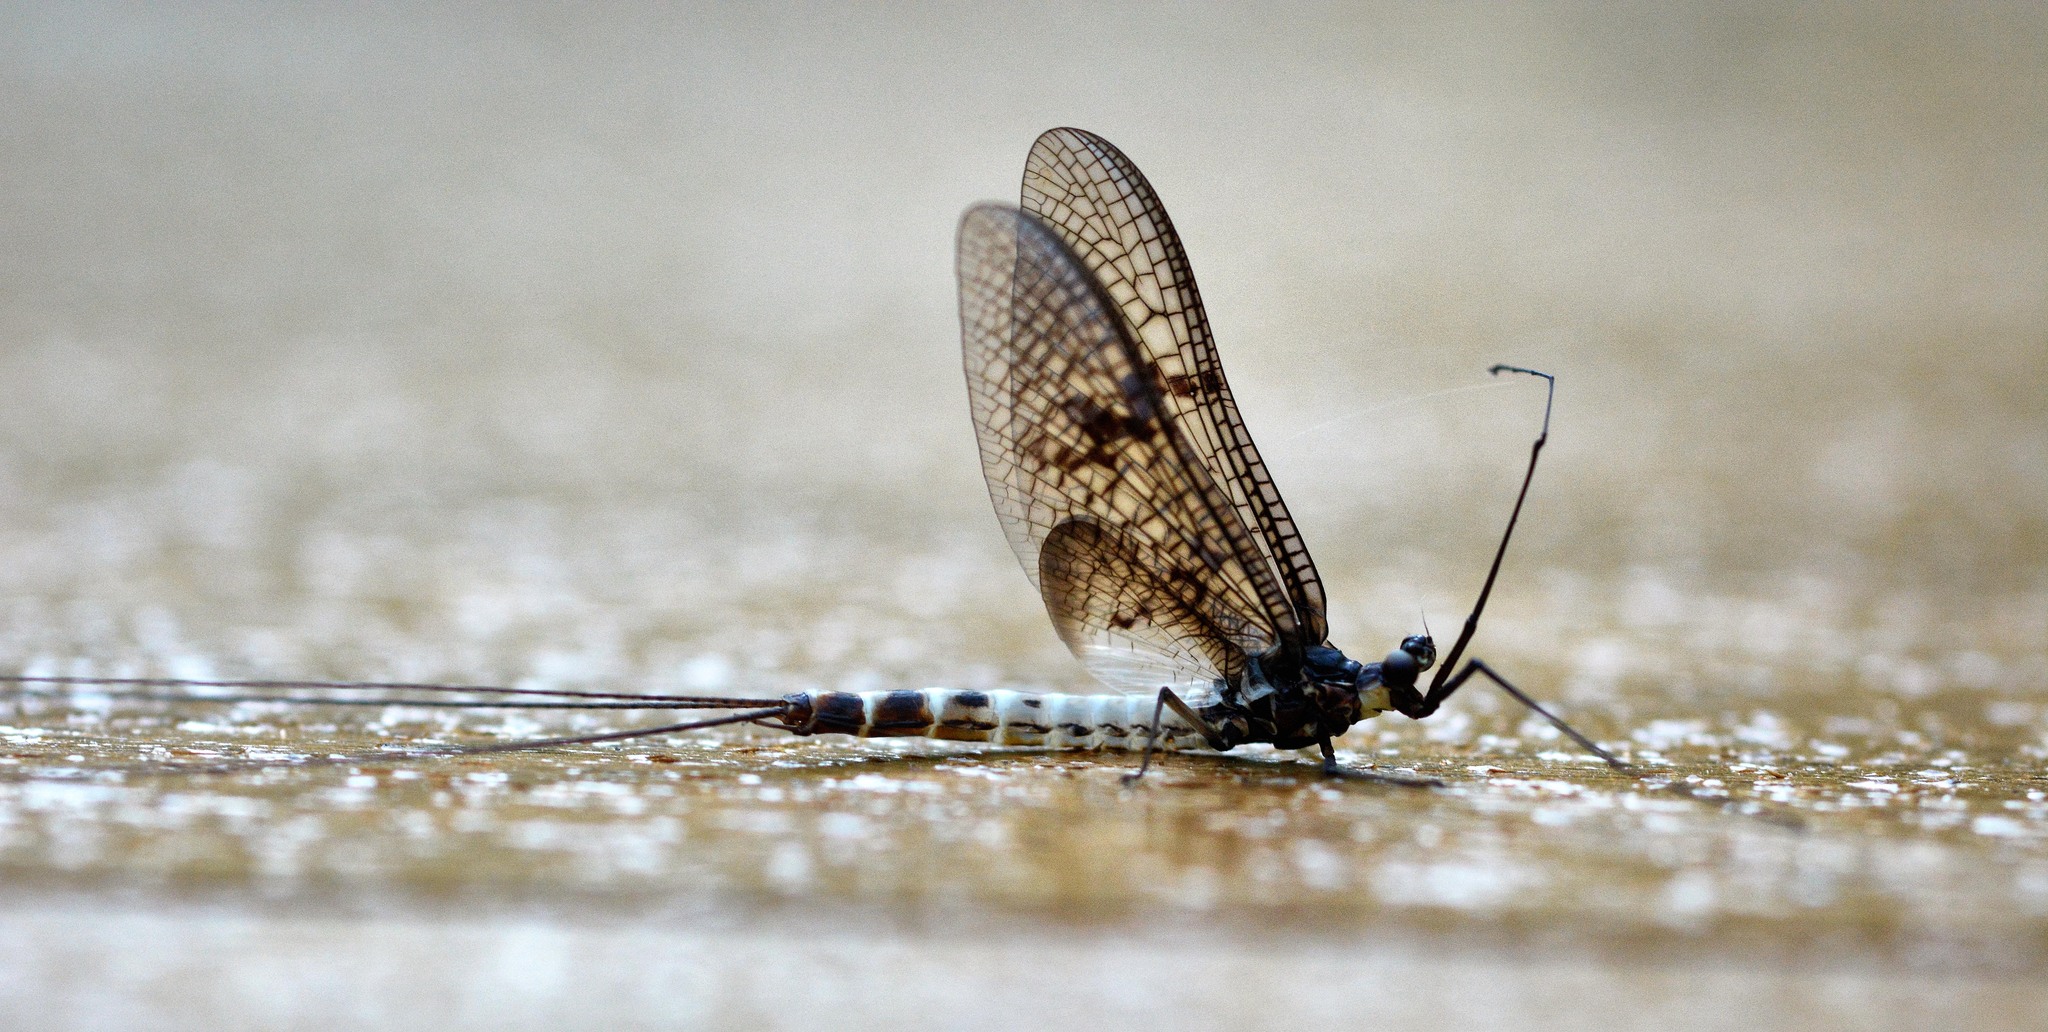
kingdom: Animalia
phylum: Arthropoda
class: Insecta
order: Ephemeroptera
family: Ephemeridae
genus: Ephemera
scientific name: Ephemera danica
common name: Green dun
